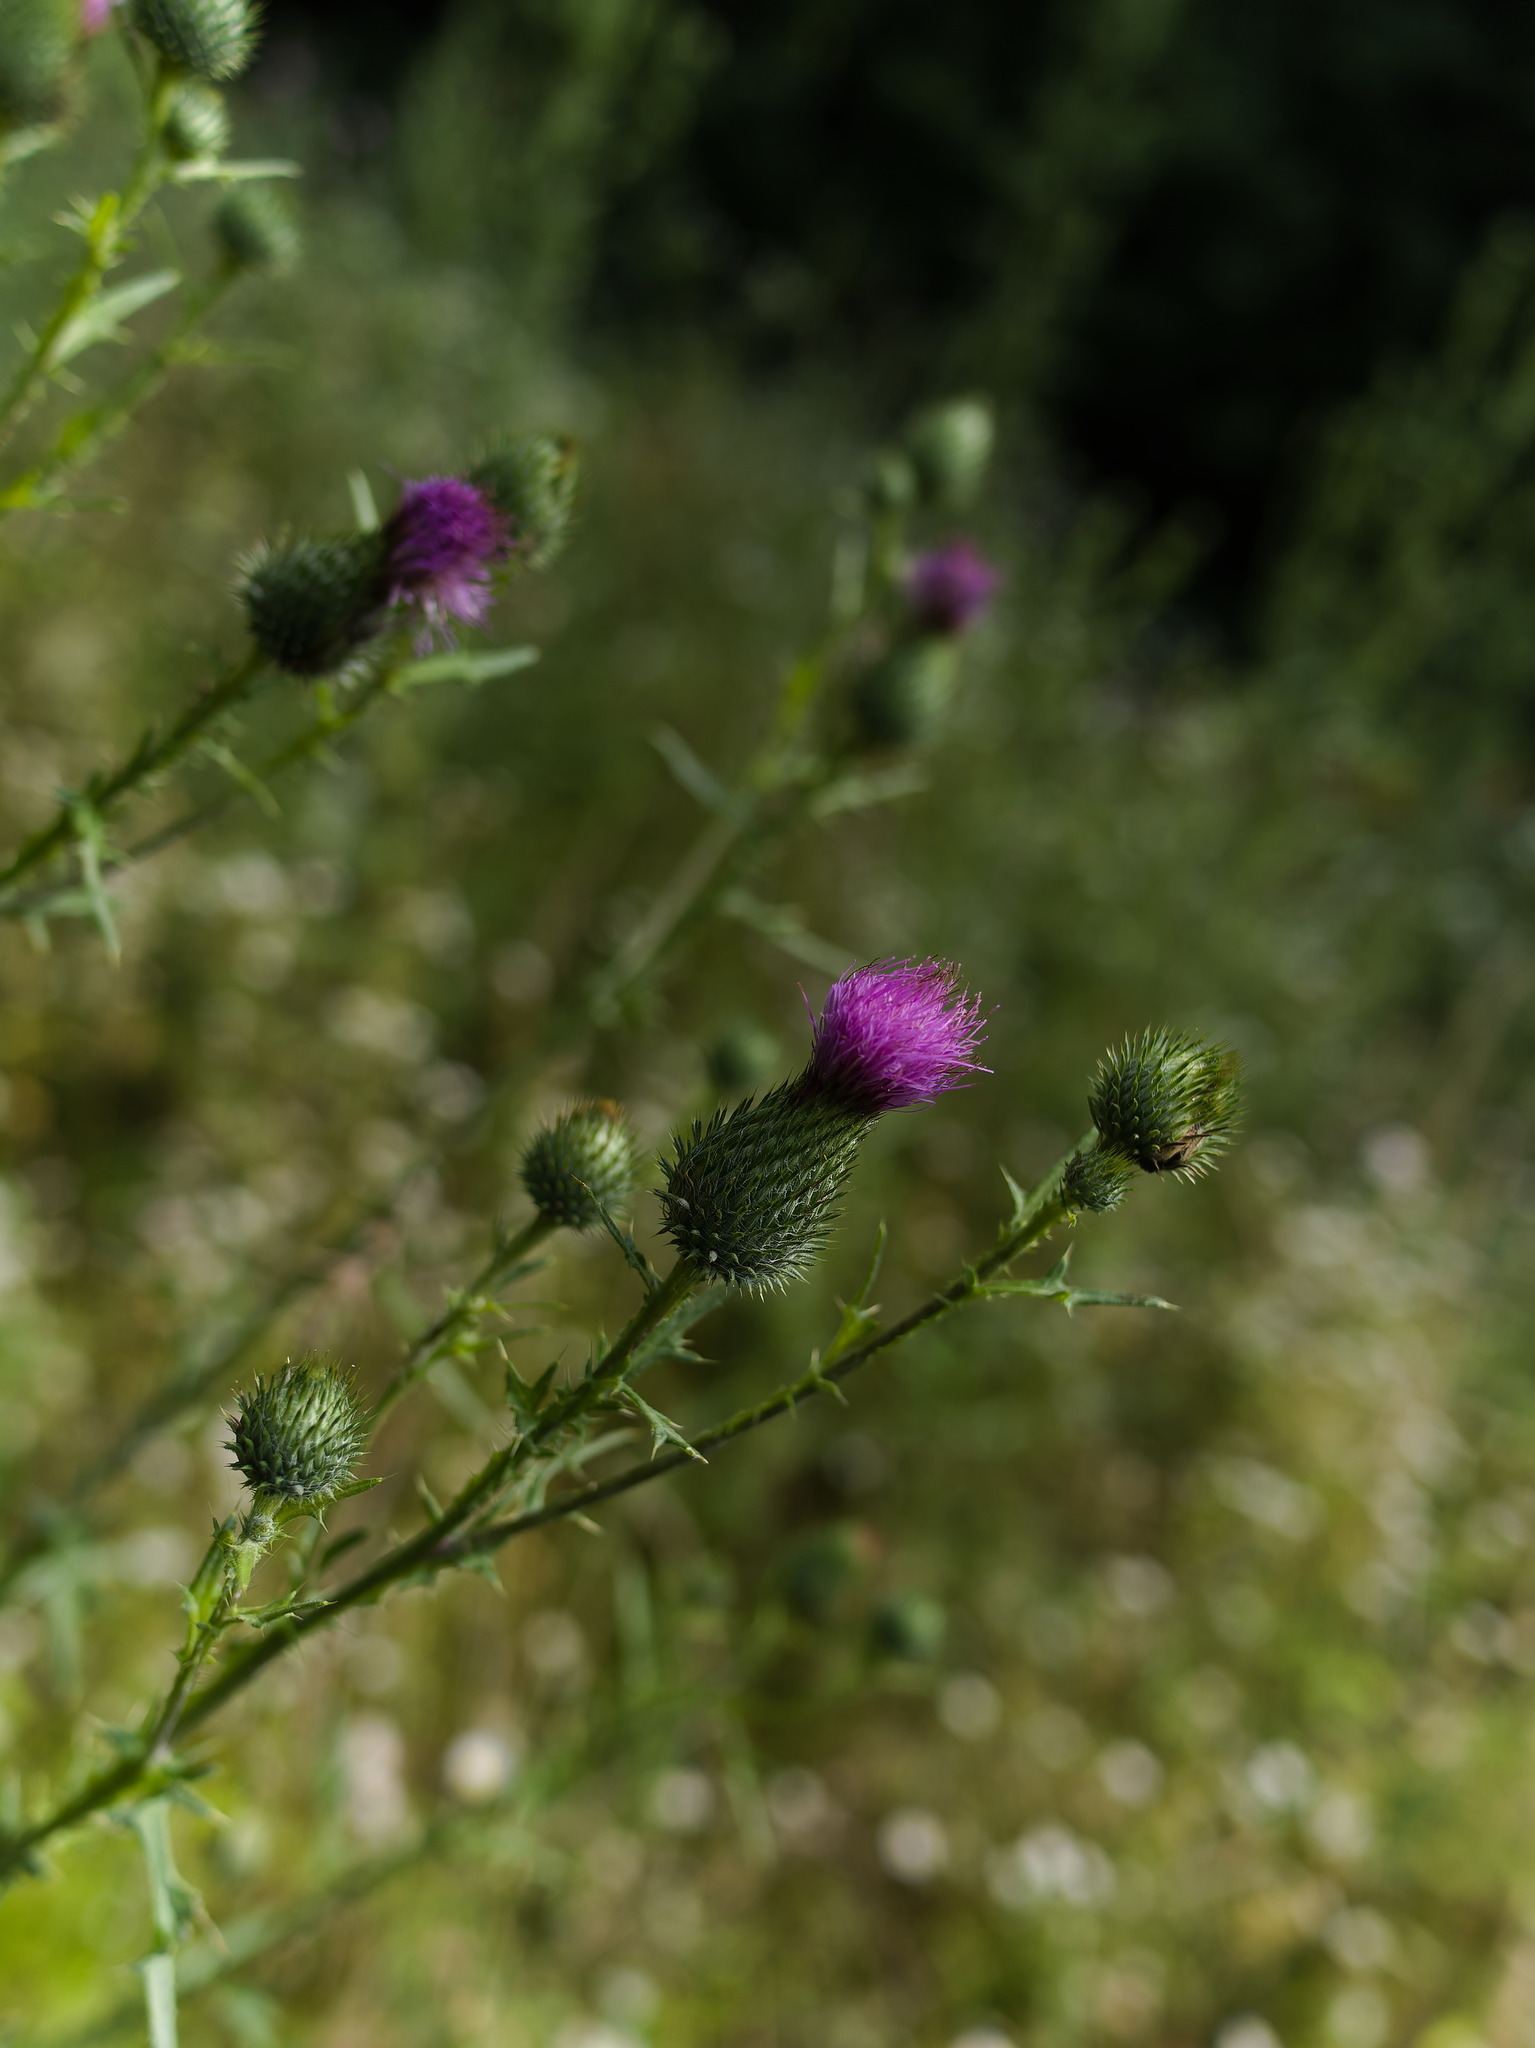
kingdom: Plantae
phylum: Tracheophyta
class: Magnoliopsida
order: Asterales
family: Asteraceae
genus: Cirsium
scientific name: Cirsium vulgare
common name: Bull thistle
